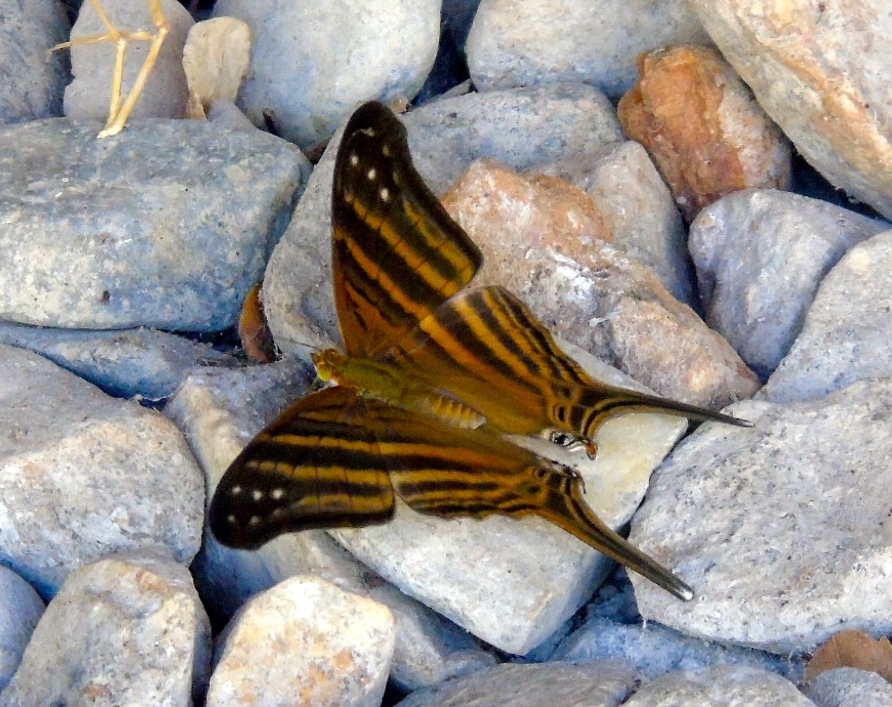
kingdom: Animalia
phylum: Arthropoda
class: Insecta
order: Lepidoptera
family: Nymphalidae
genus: Marpesia
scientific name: Marpesia chiron
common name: Many-banded daggerwing
